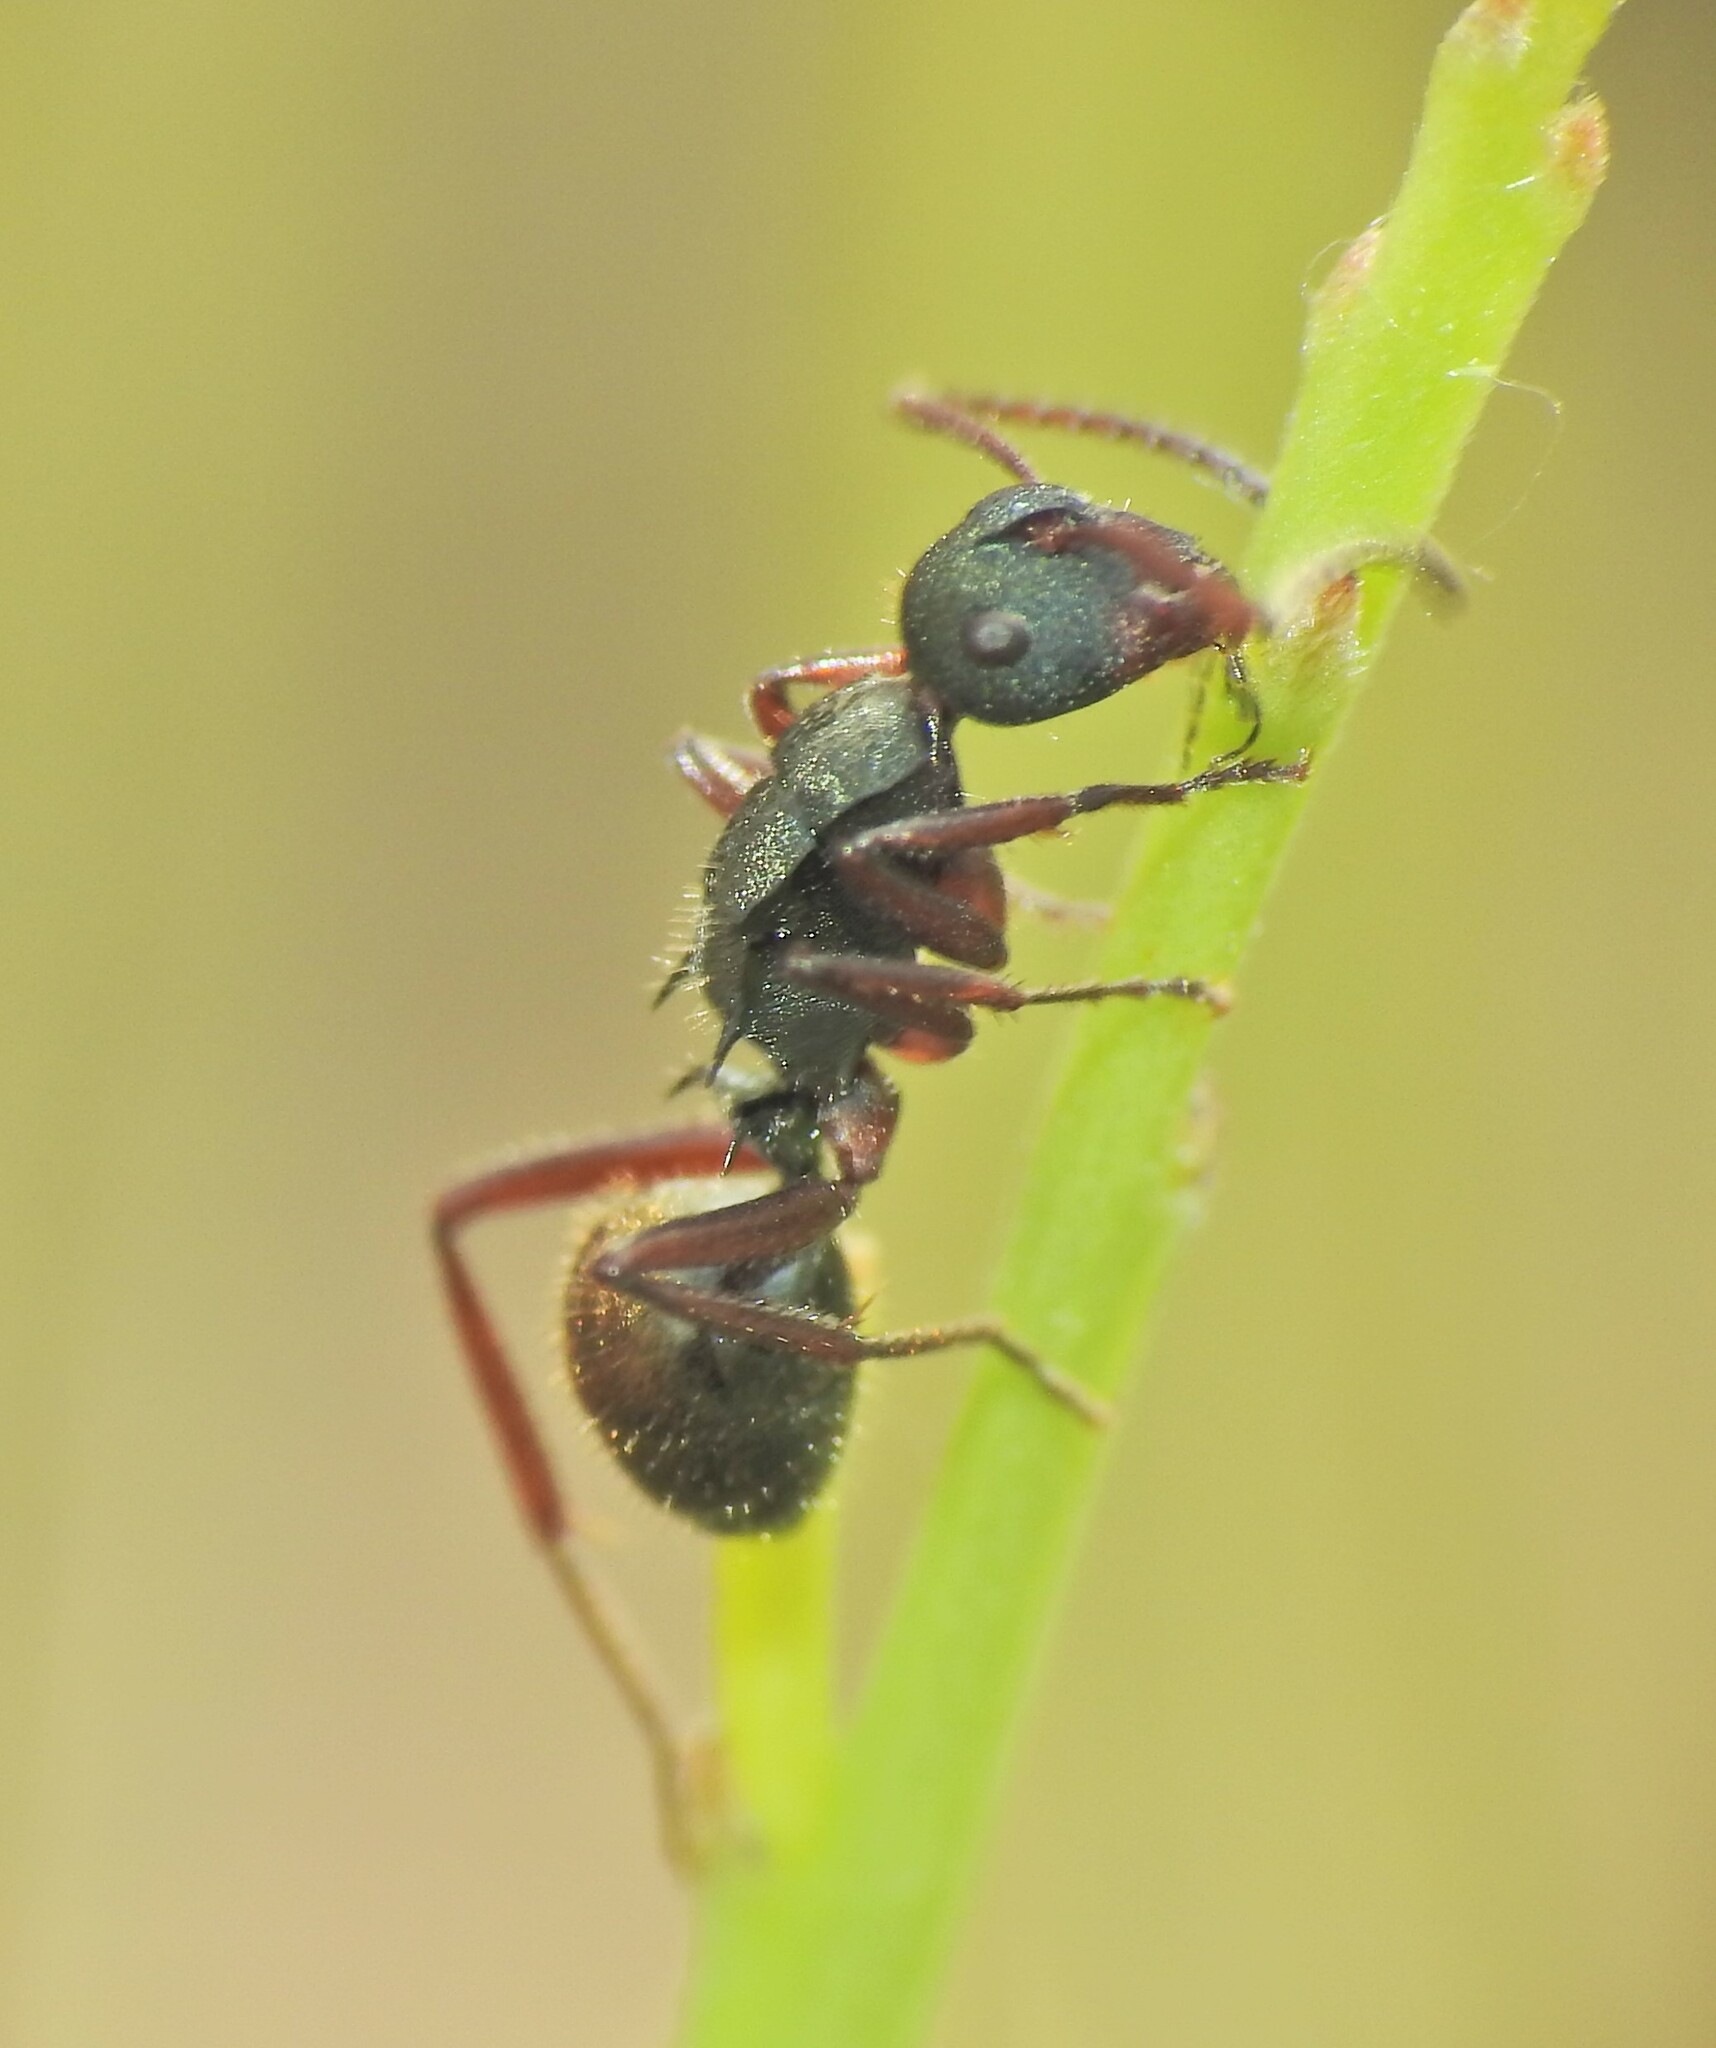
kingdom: Animalia
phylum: Arthropoda
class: Insecta
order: Hymenoptera
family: Formicidae
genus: Polyrhachis
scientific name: Polyrhachis lydiae
